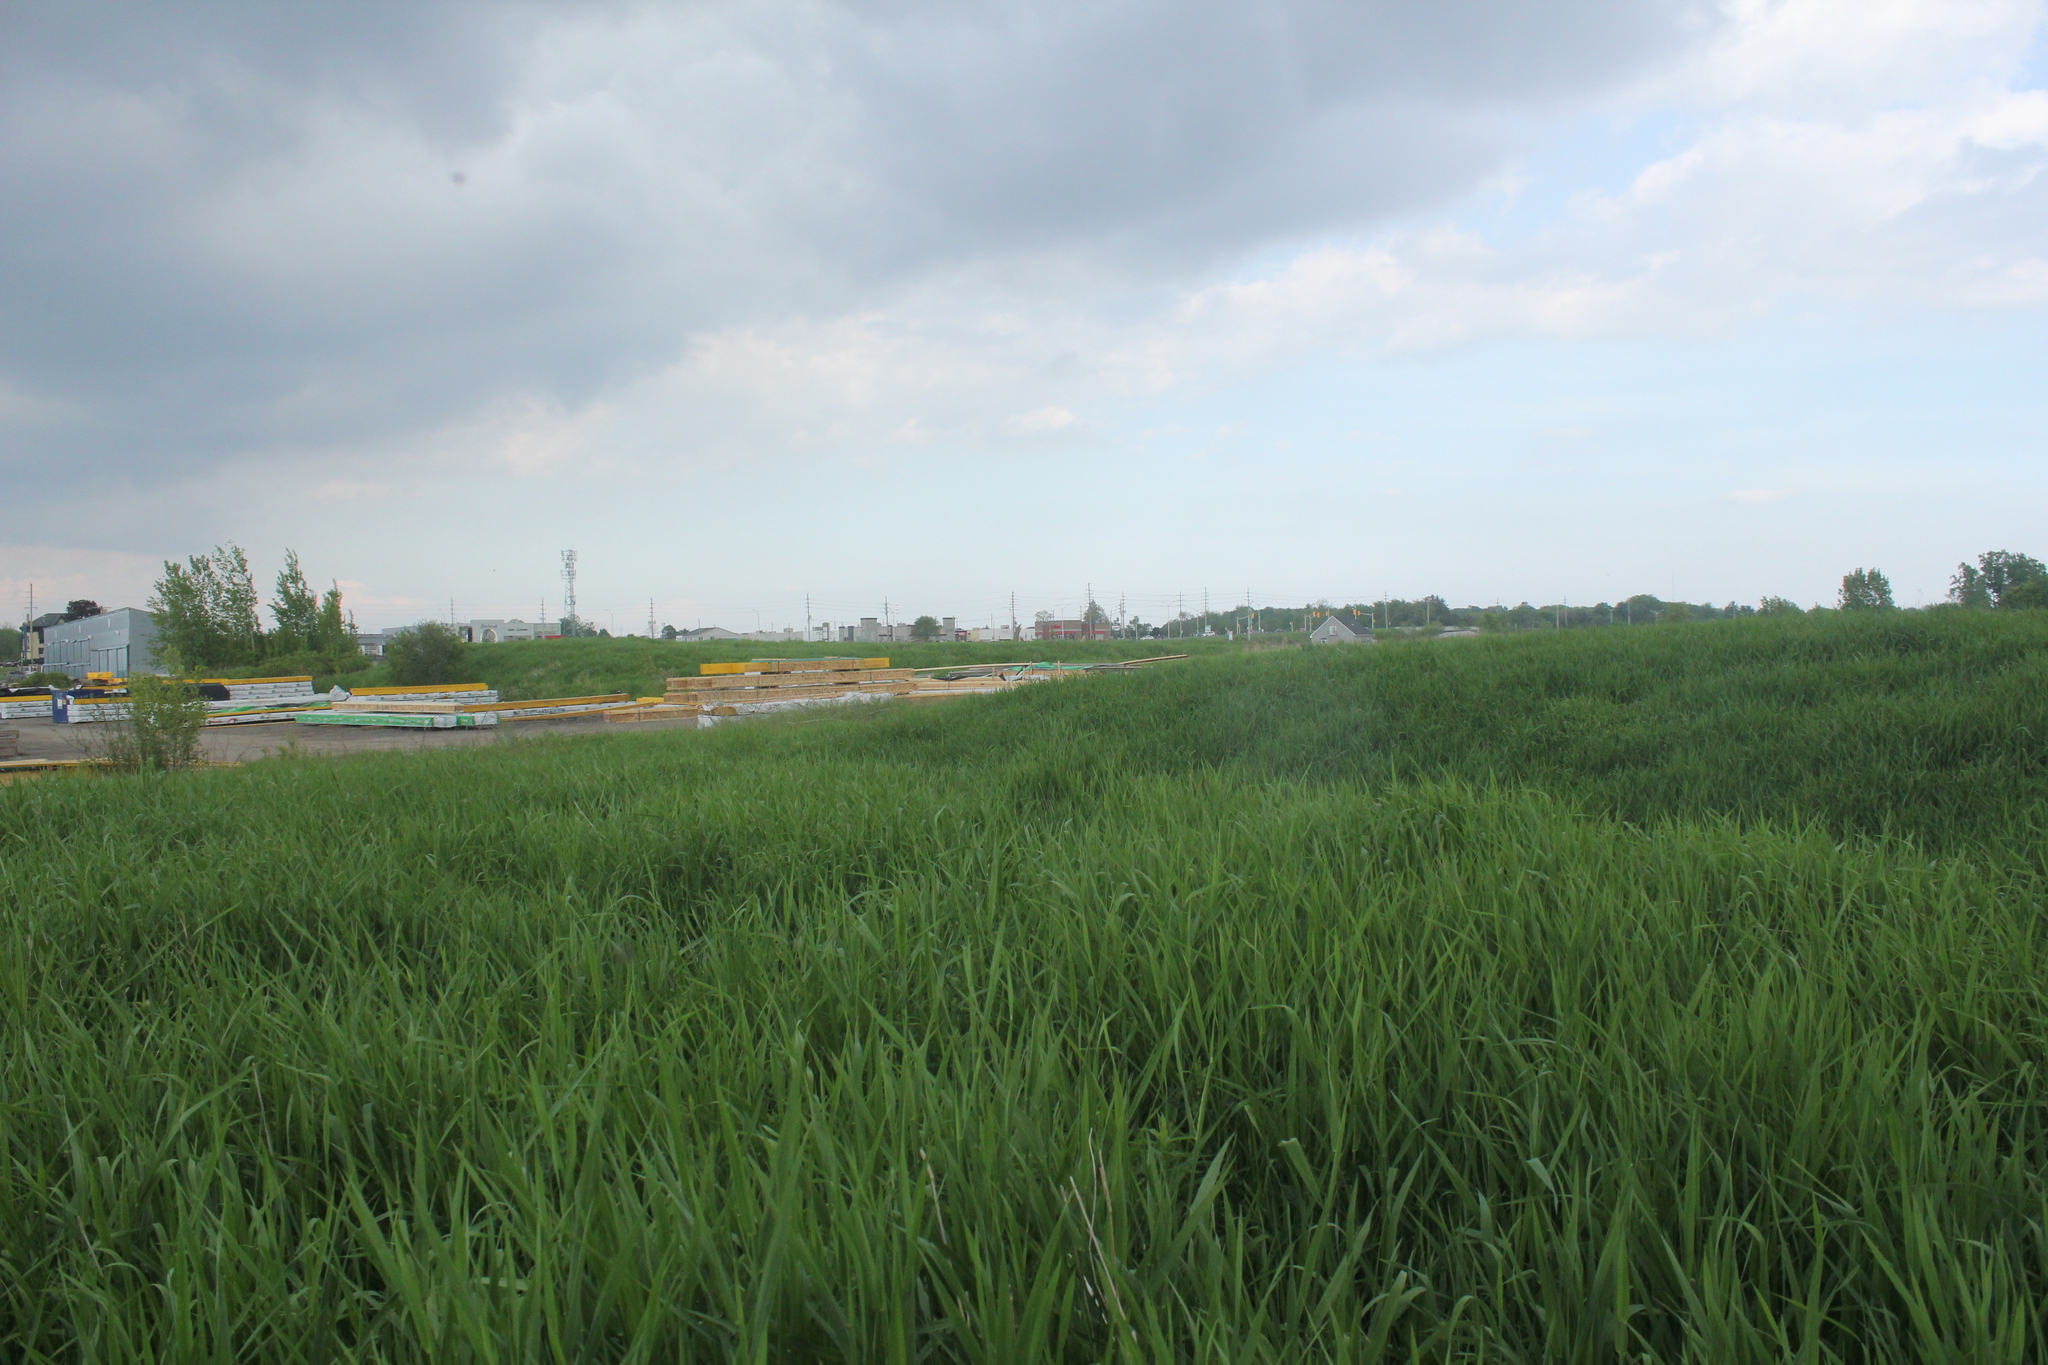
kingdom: Plantae
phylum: Tracheophyta
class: Liliopsida
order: Poales
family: Poaceae
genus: Phalaris
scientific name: Phalaris arundinacea
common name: Reed canary-grass
